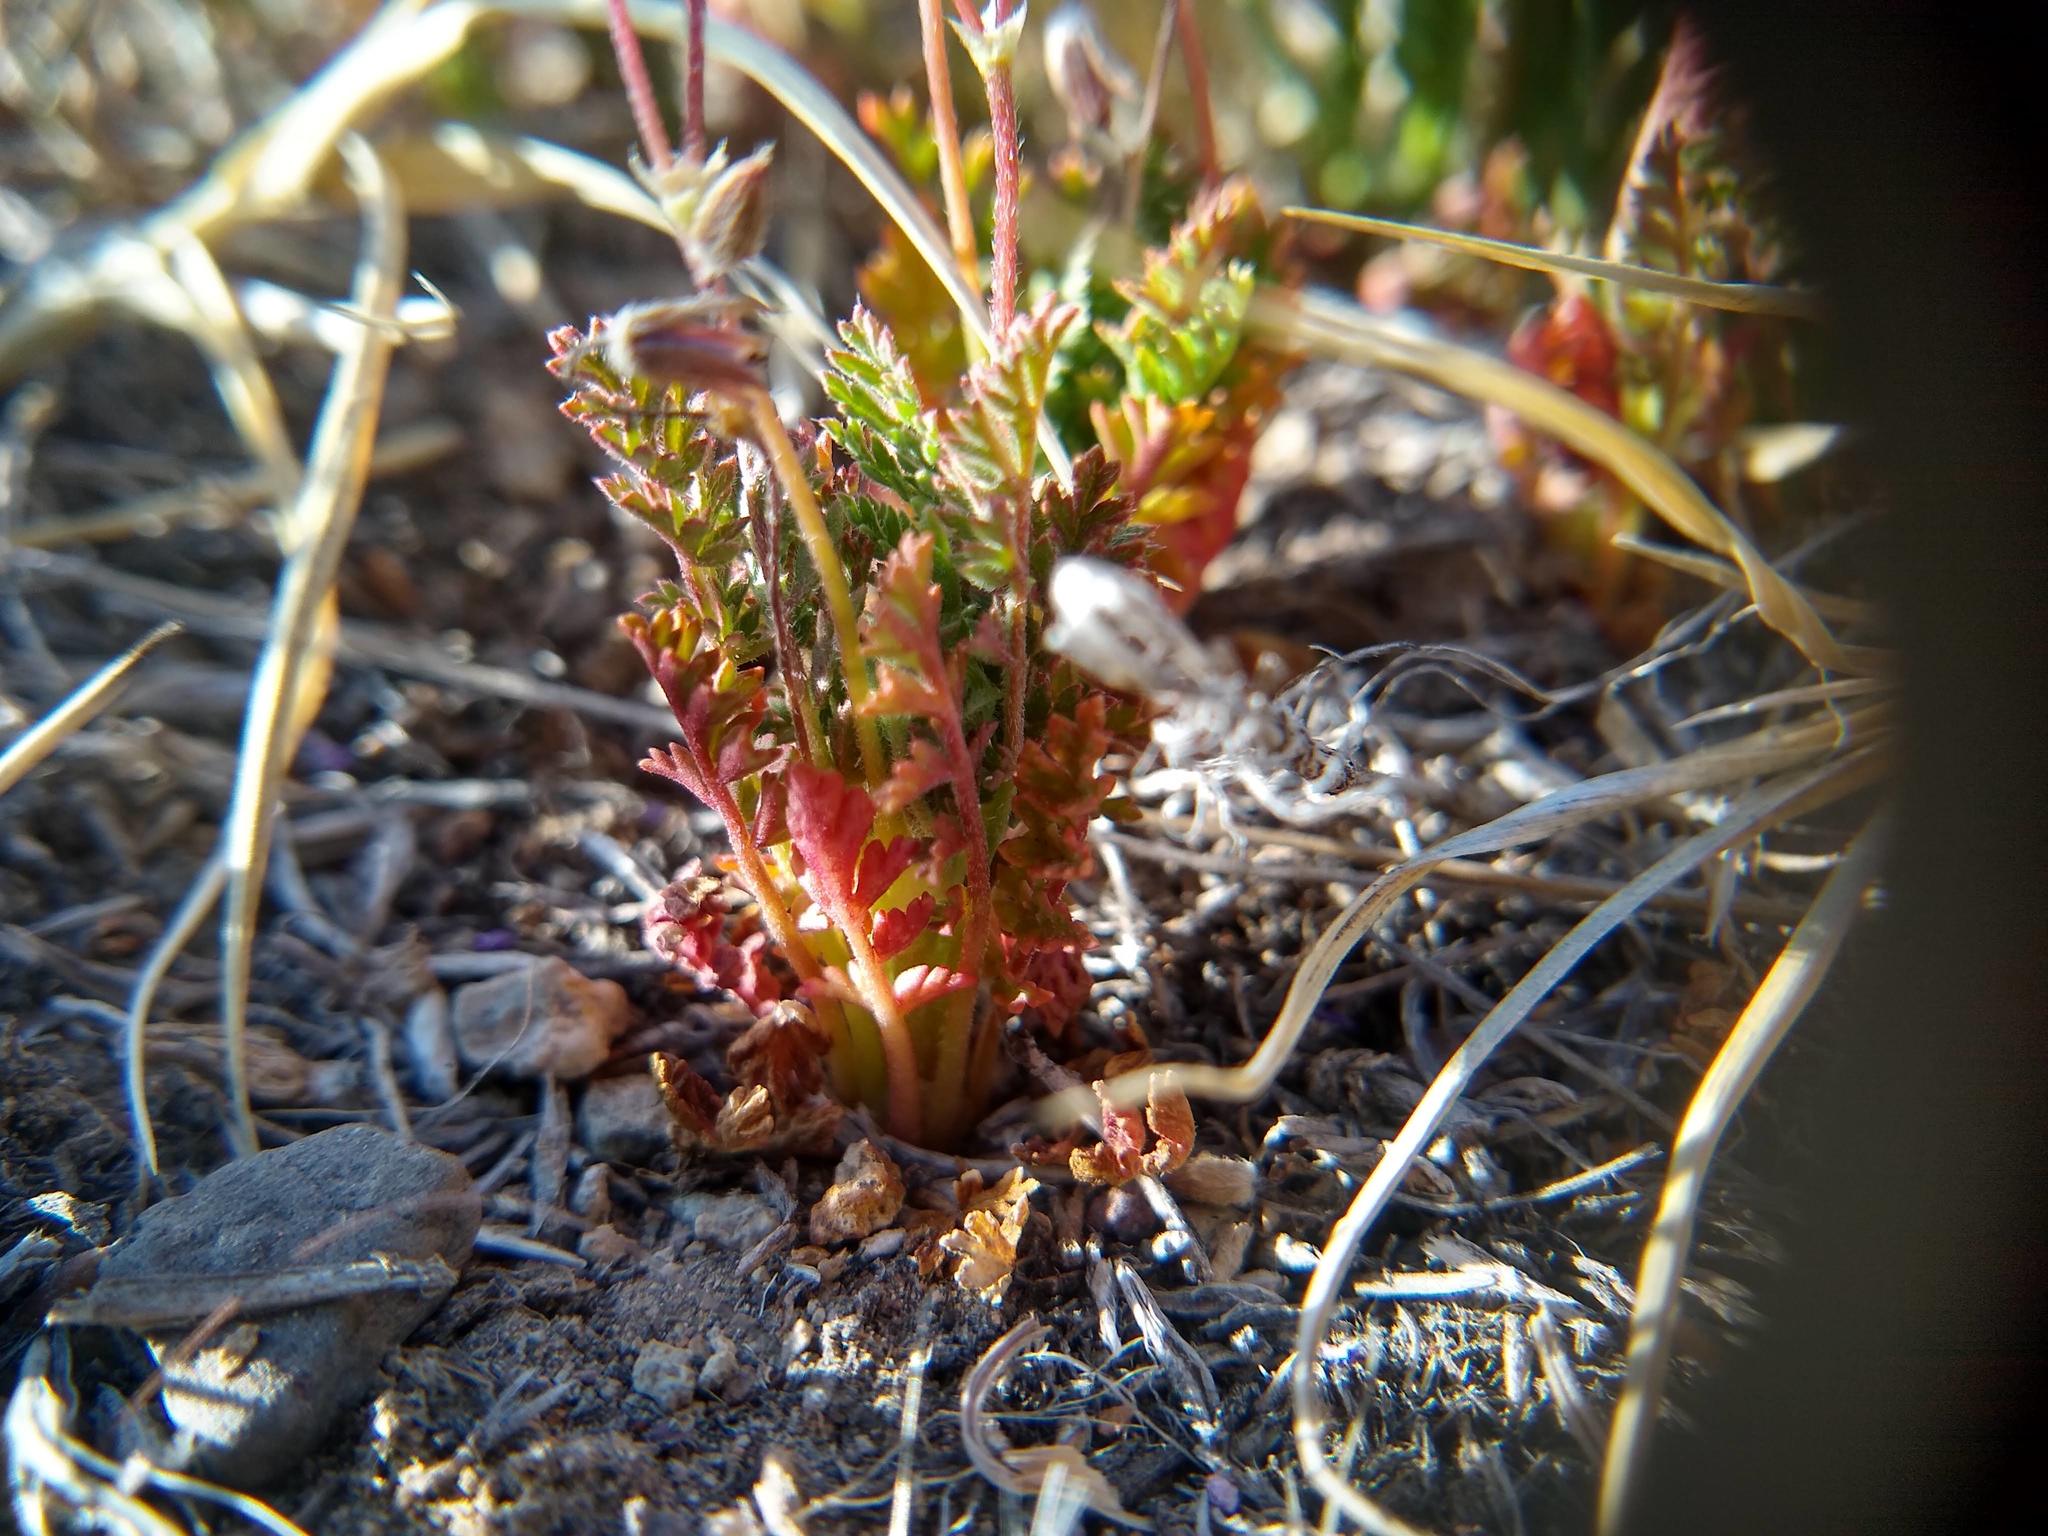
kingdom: Plantae
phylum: Tracheophyta
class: Magnoliopsida
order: Geraniales
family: Geraniaceae
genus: Erodium
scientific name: Erodium cicutarium
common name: Common stork's-bill
